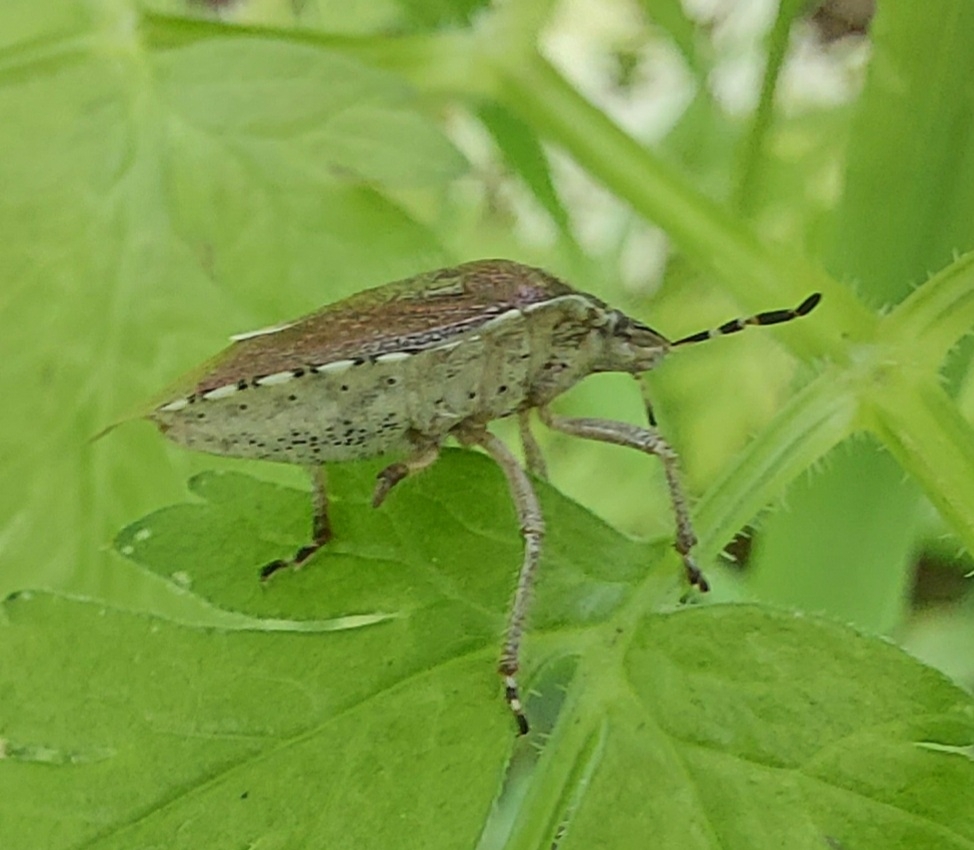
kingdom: Animalia
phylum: Arthropoda
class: Insecta
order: Hemiptera
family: Pentatomidae
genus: Dolycoris
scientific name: Dolycoris baccarum
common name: Sloe bug
